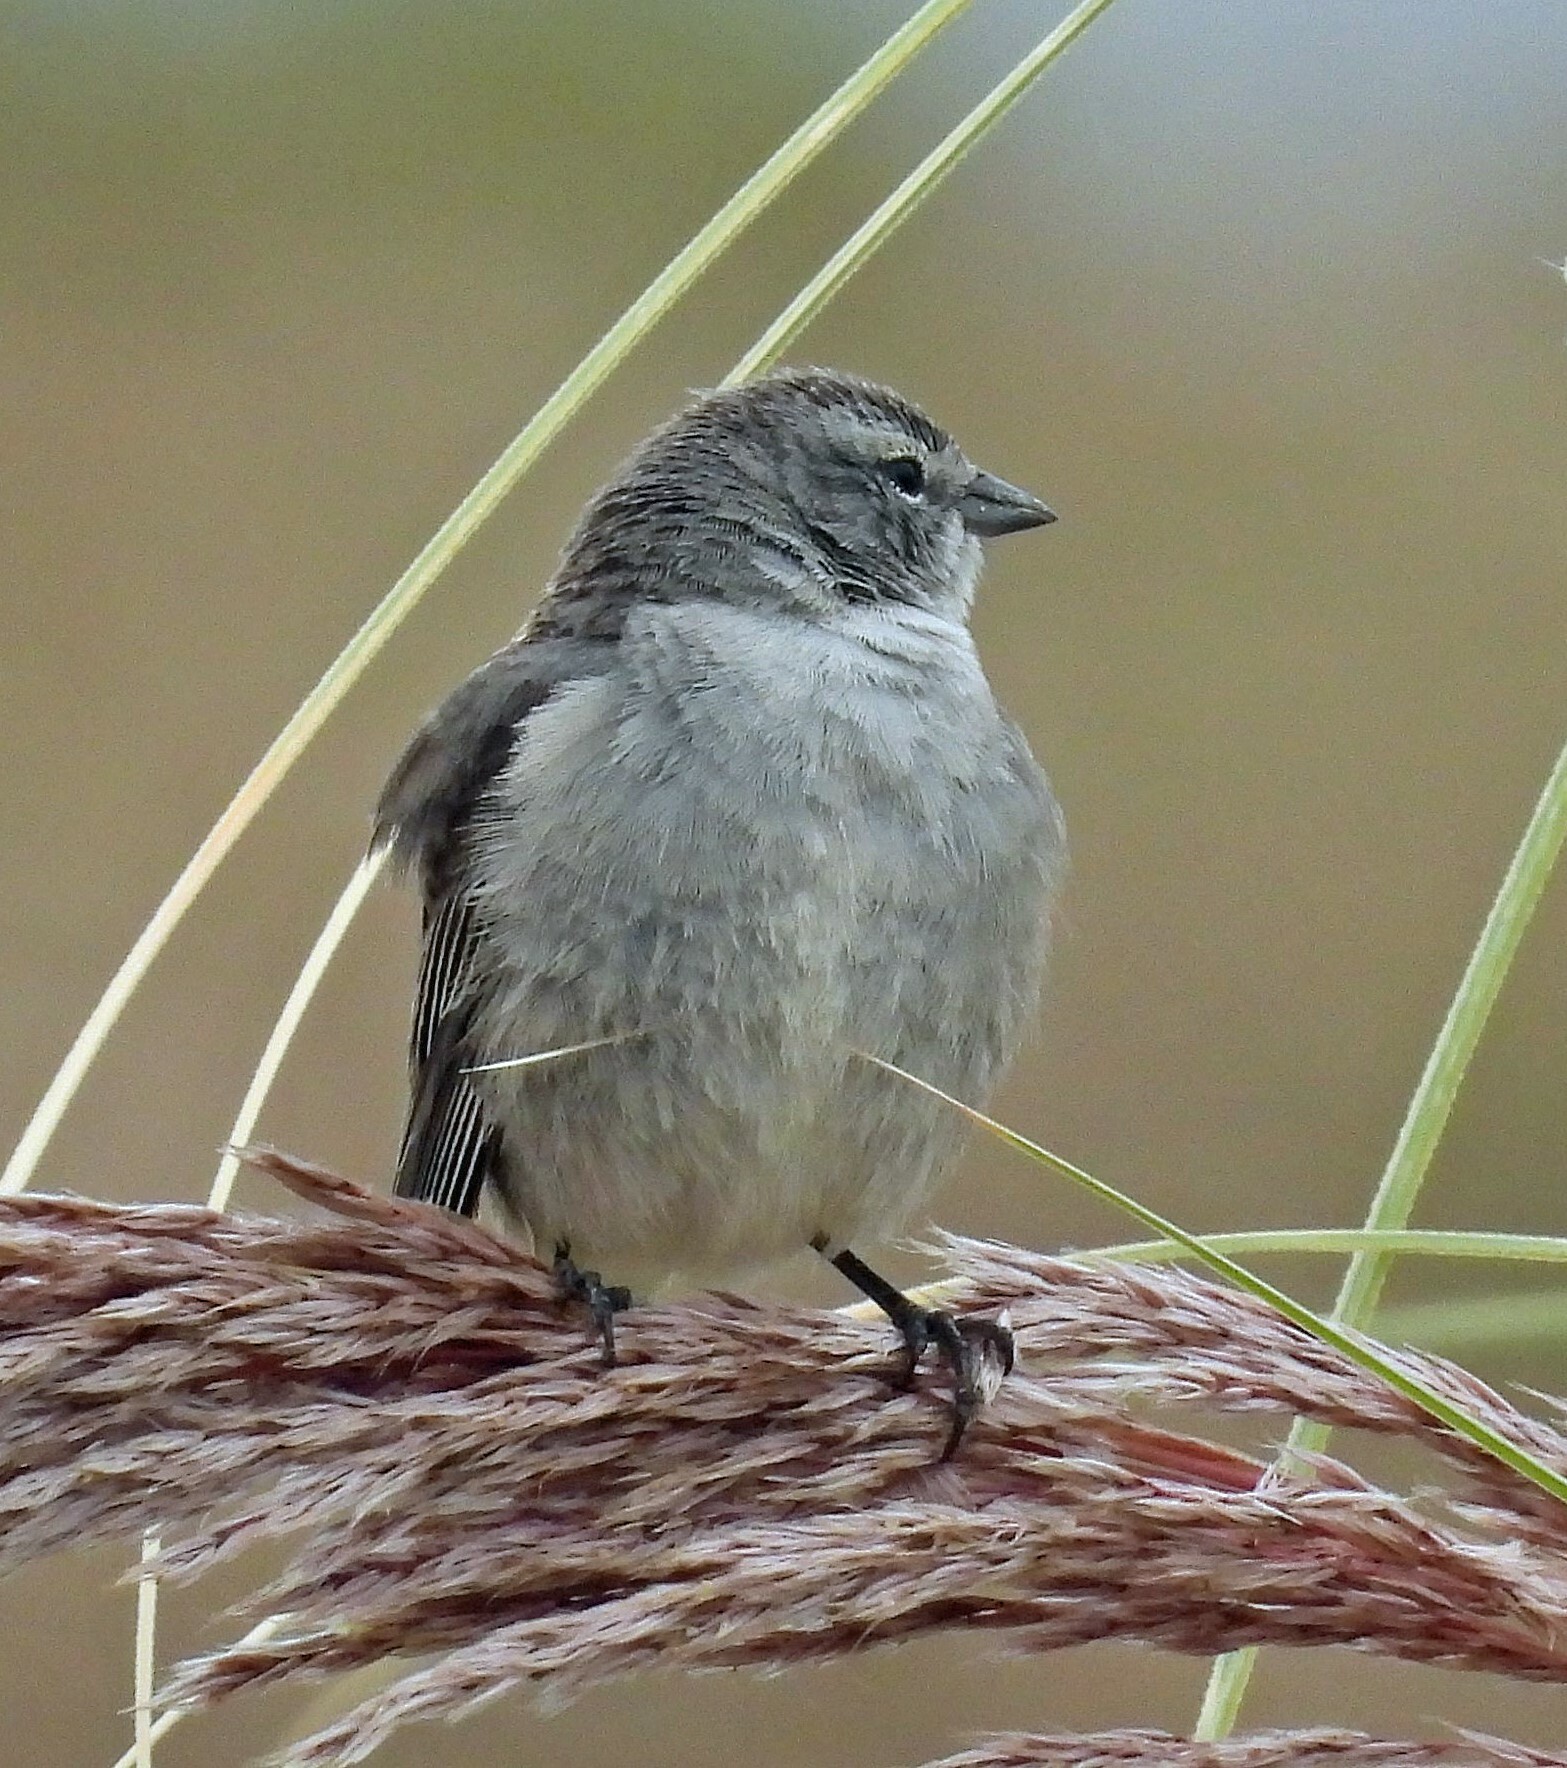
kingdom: Animalia
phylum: Chordata
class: Aves
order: Passeriformes
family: Thraupidae
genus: Geospizopsis
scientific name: Geospizopsis plebejus
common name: Ash-breasted sierra-finch
